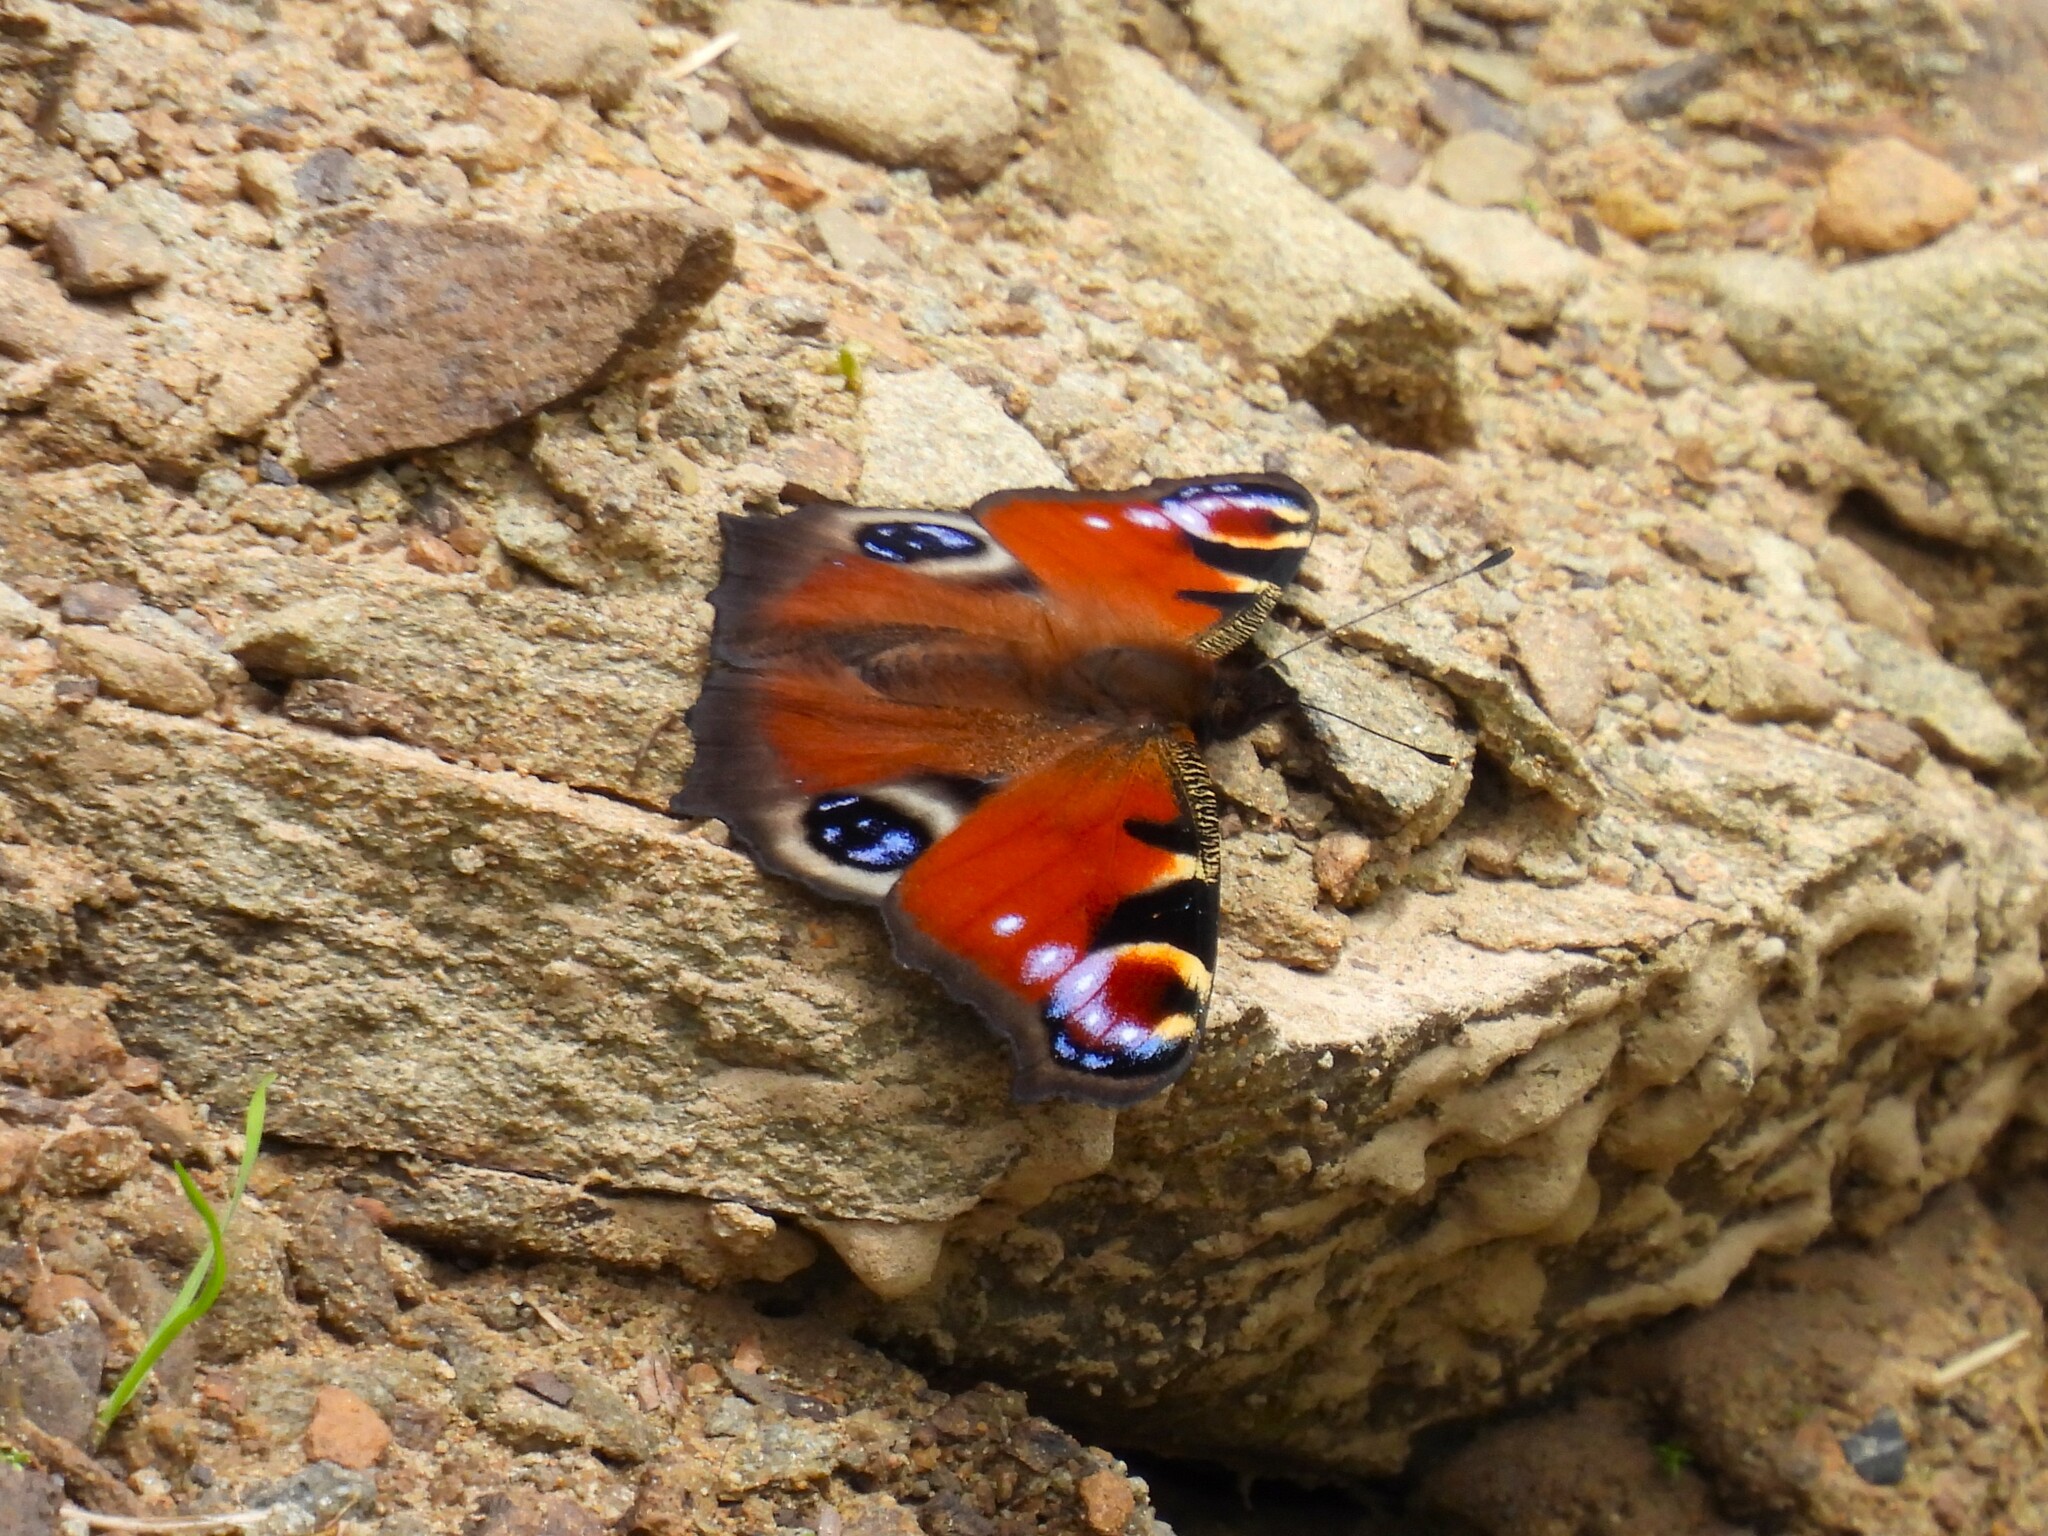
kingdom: Animalia
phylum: Arthropoda
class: Insecta
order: Lepidoptera
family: Nymphalidae
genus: Aglais
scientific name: Aglais io
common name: Peacock
